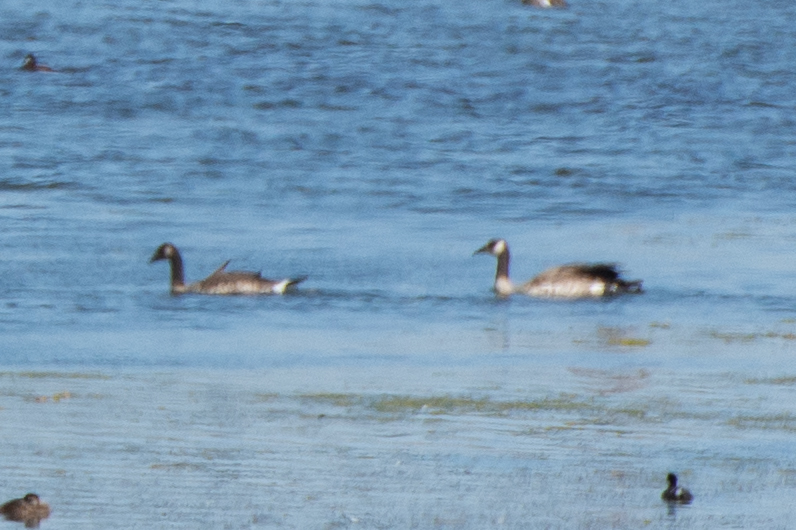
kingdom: Animalia
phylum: Chordata
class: Aves
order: Anseriformes
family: Anatidae
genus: Branta
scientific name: Branta canadensis
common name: Canada goose
